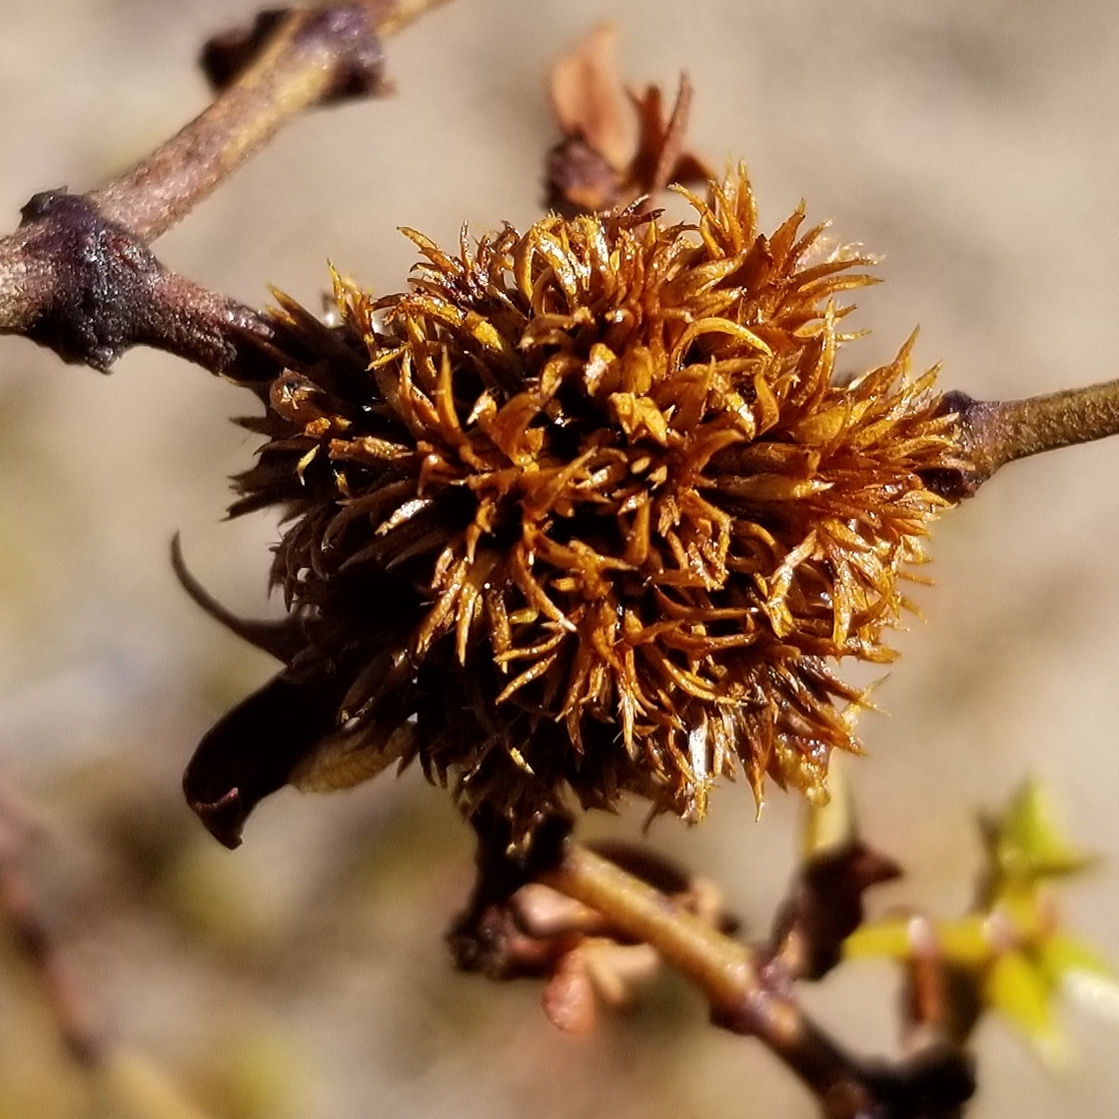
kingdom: Animalia
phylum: Arthropoda
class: Insecta
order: Diptera
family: Cecidomyiidae
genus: Asphondylia
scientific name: Asphondylia auripila
